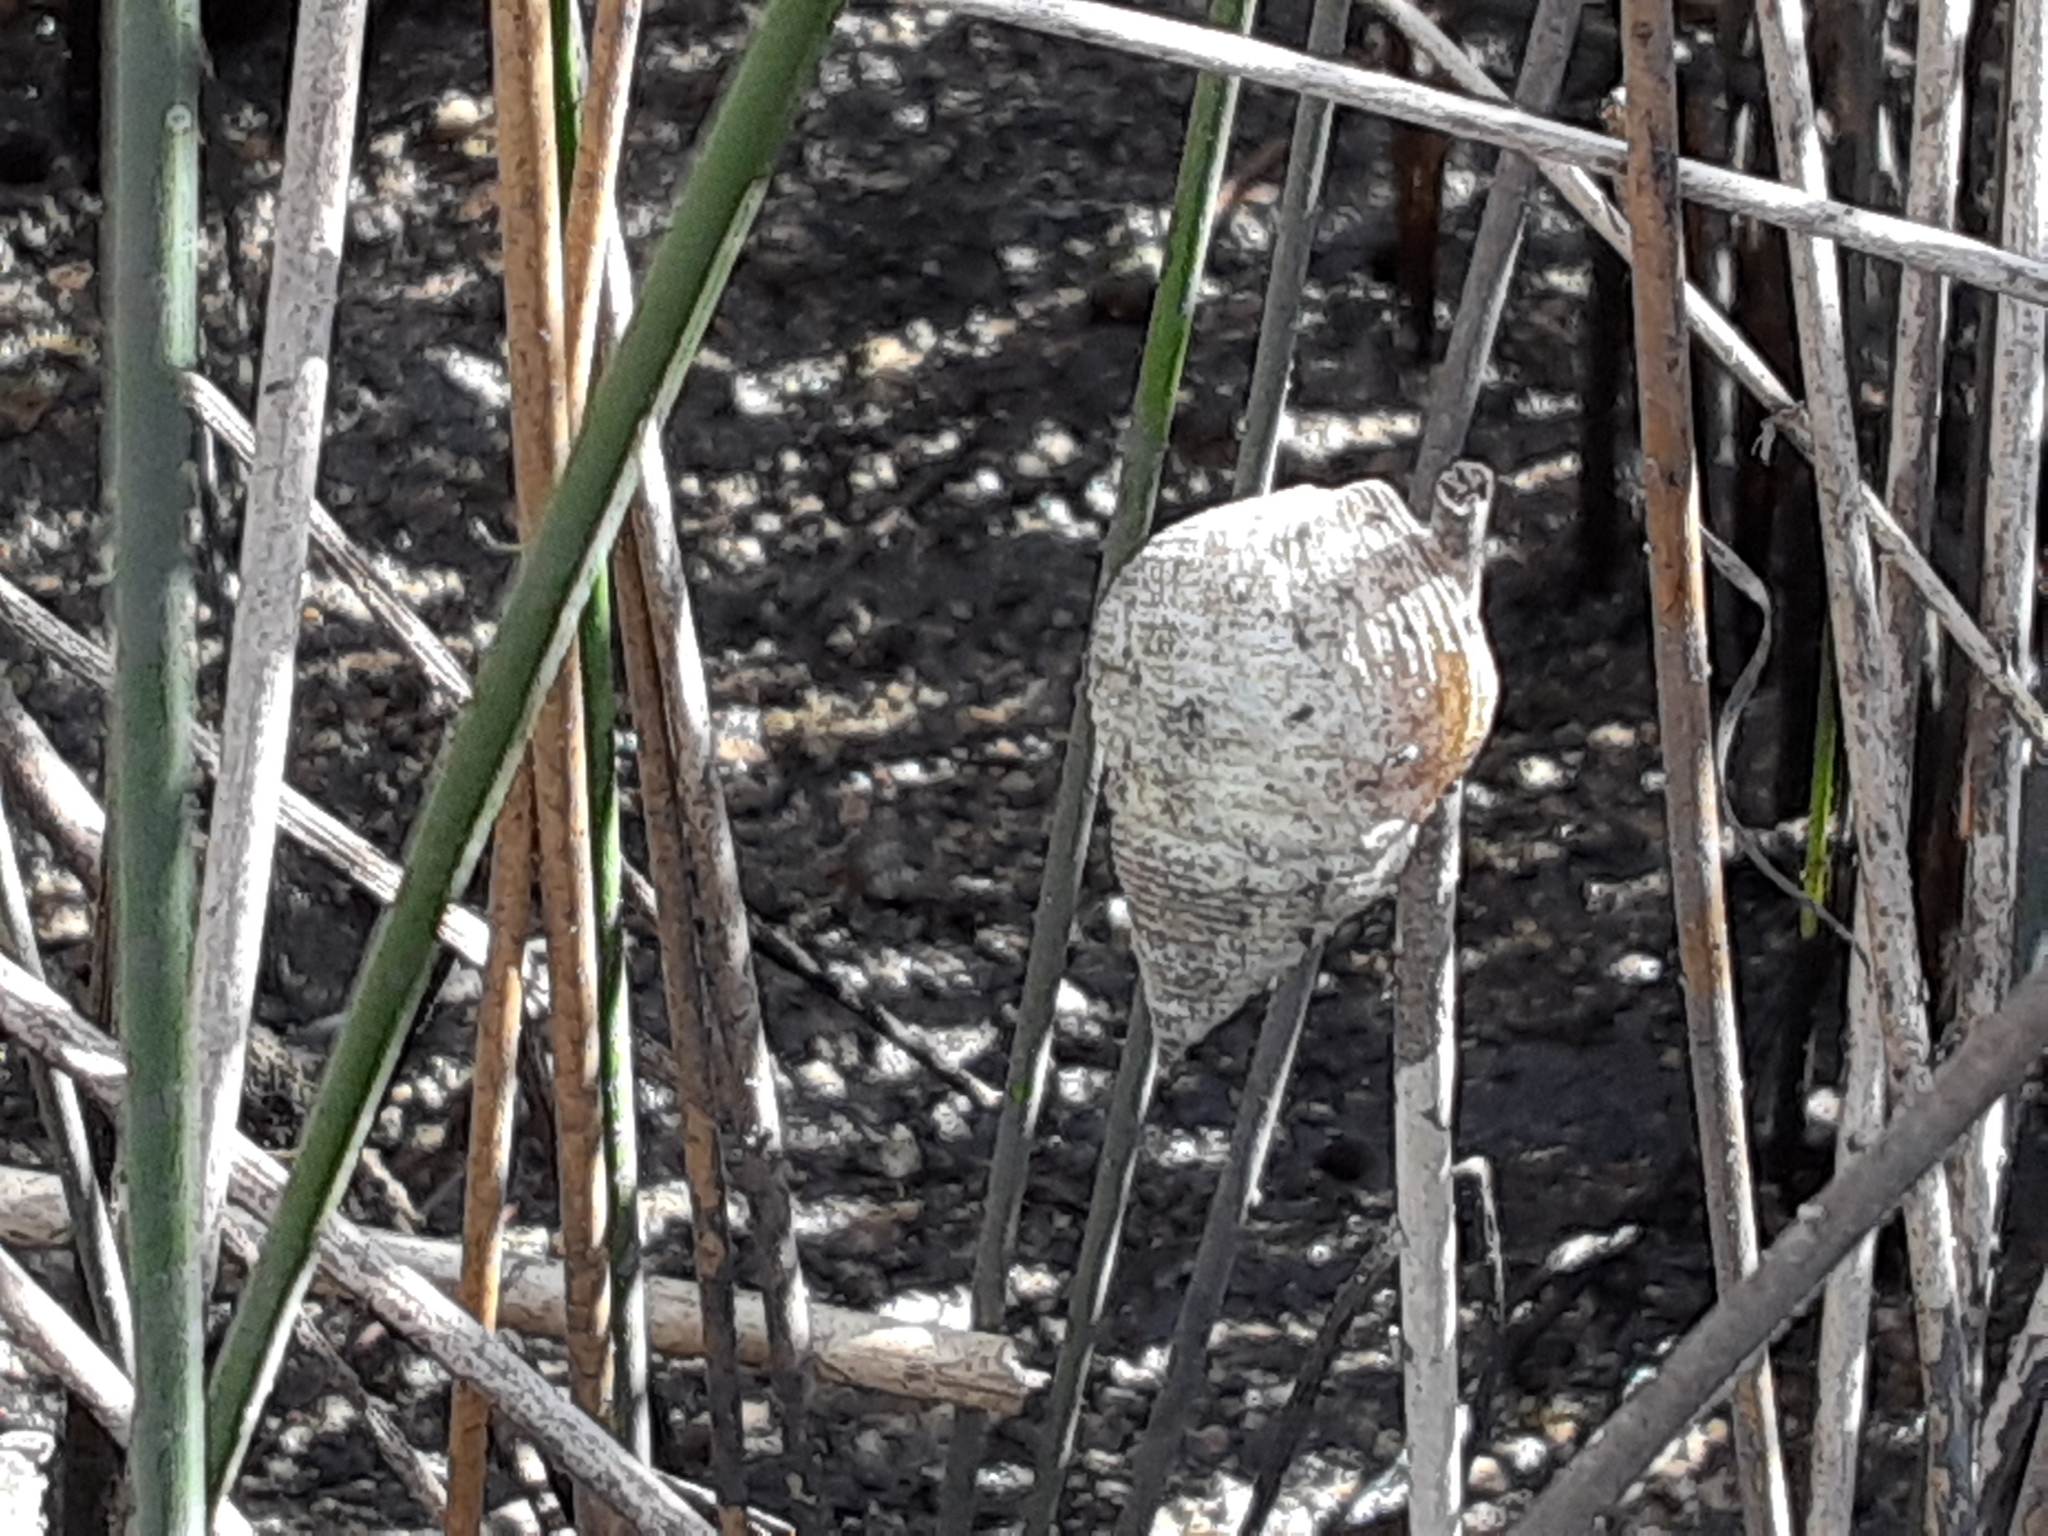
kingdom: Animalia
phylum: Mollusca
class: Gastropoda
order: Littorinimorpha
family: Littorinidae
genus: Littoraria
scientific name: Littoraria irrorata
